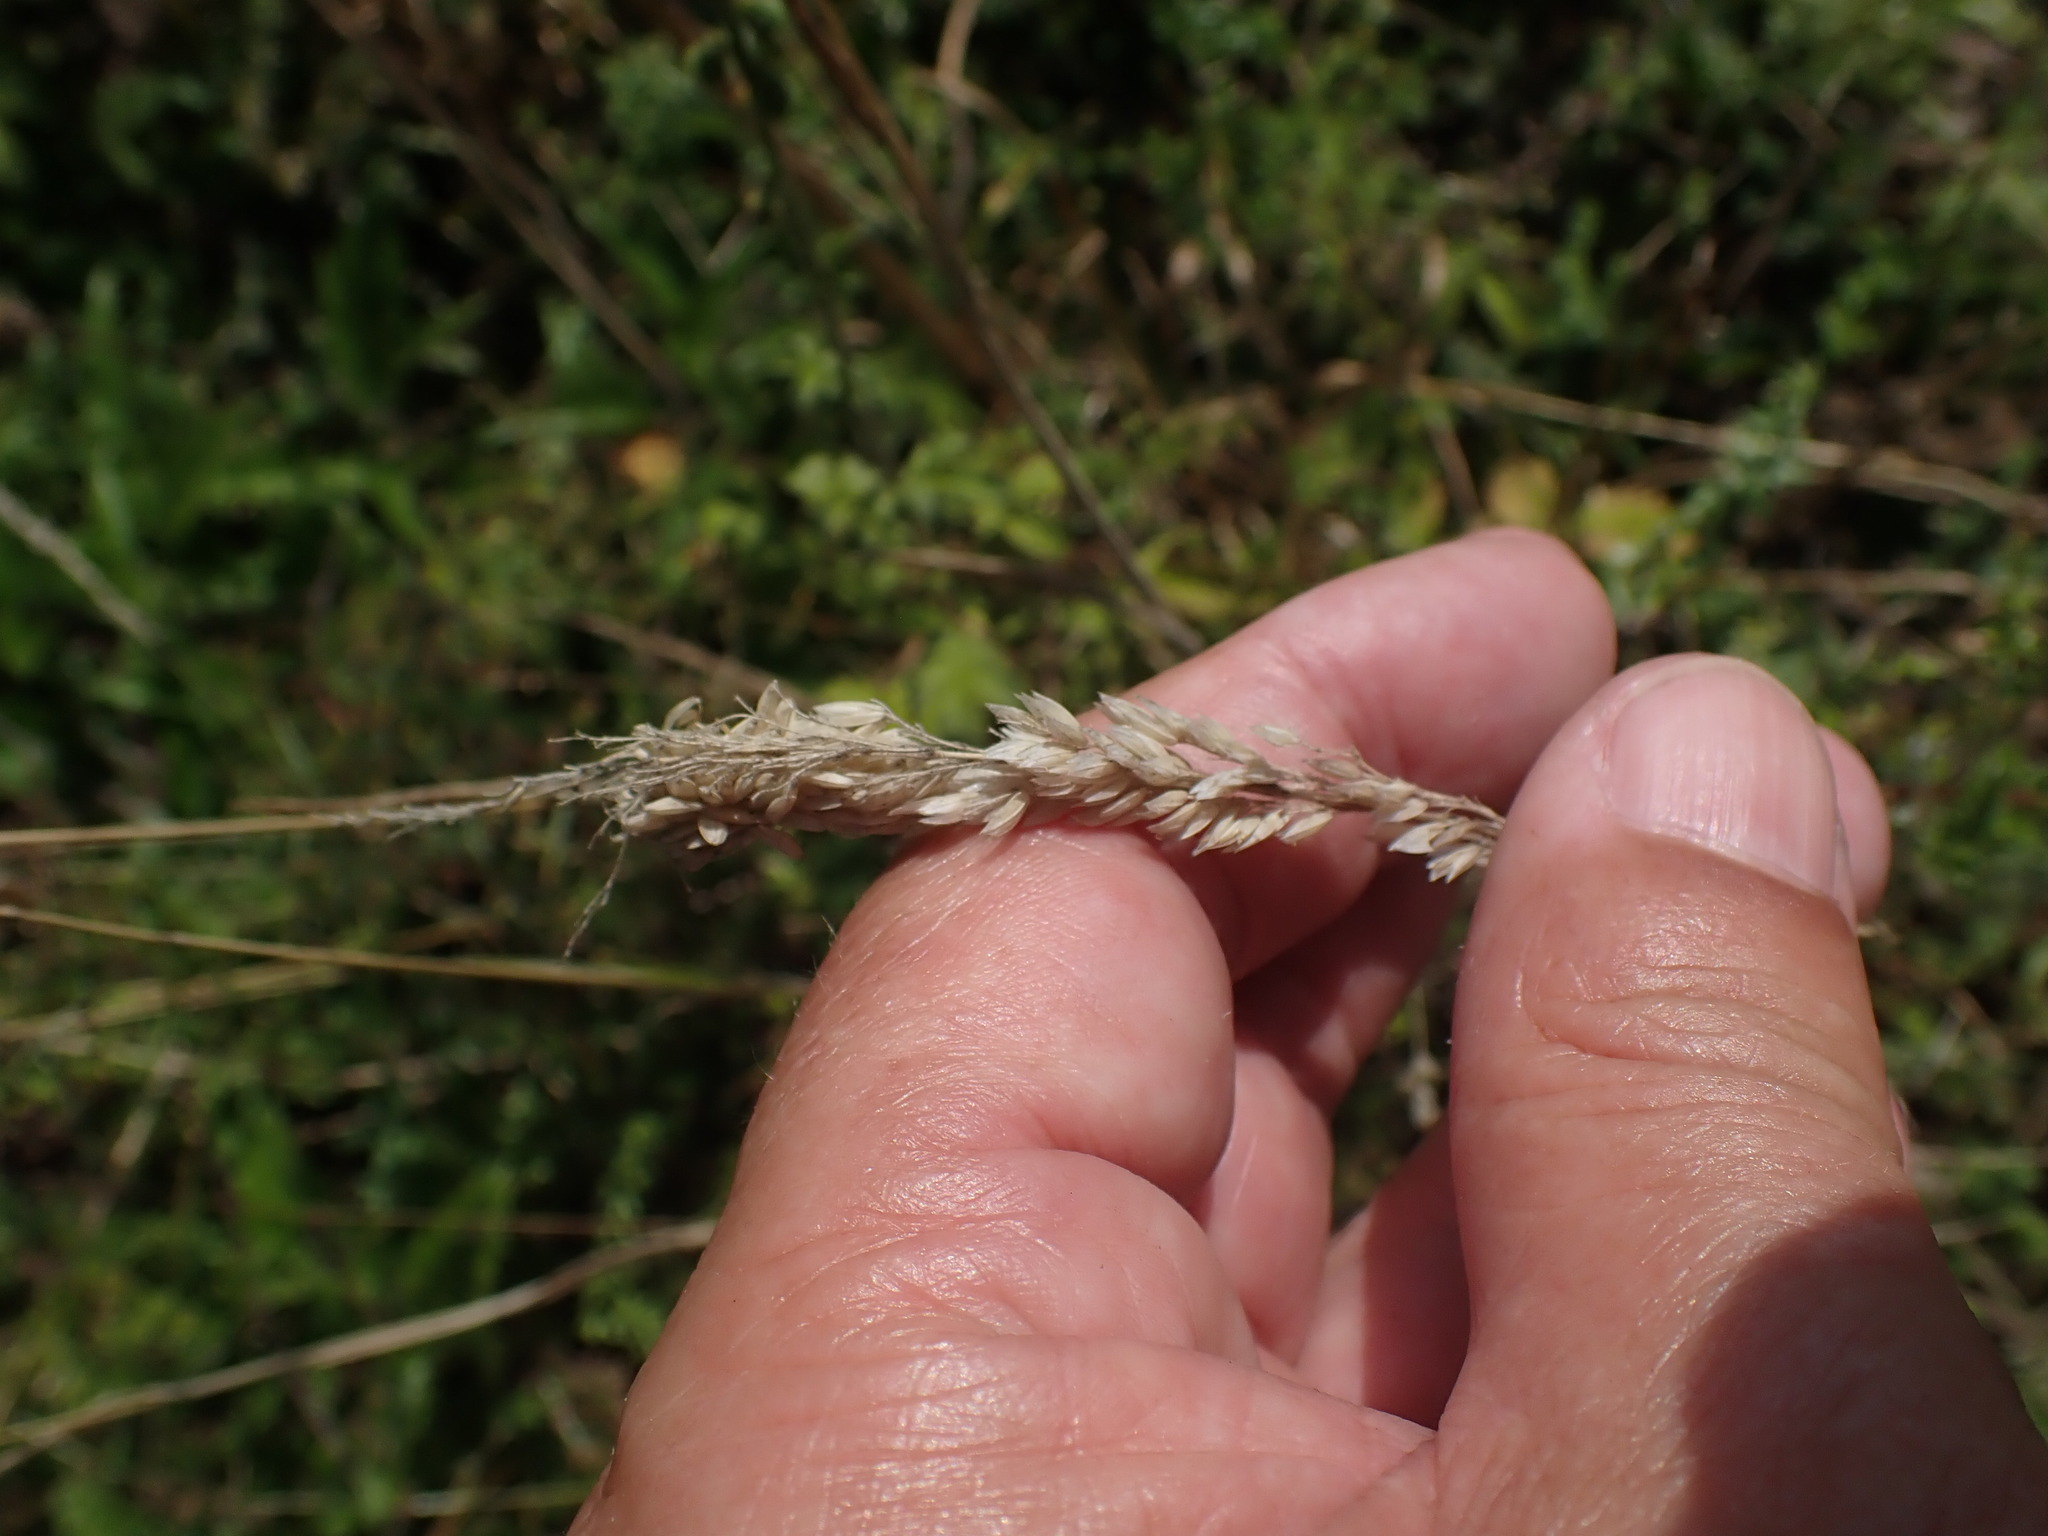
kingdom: Plantae
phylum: Tracheophyta
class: Liliopsida
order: Poales
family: Poaceae
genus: Holcus
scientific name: Holcus lanatus
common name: Yorkshire-fog
